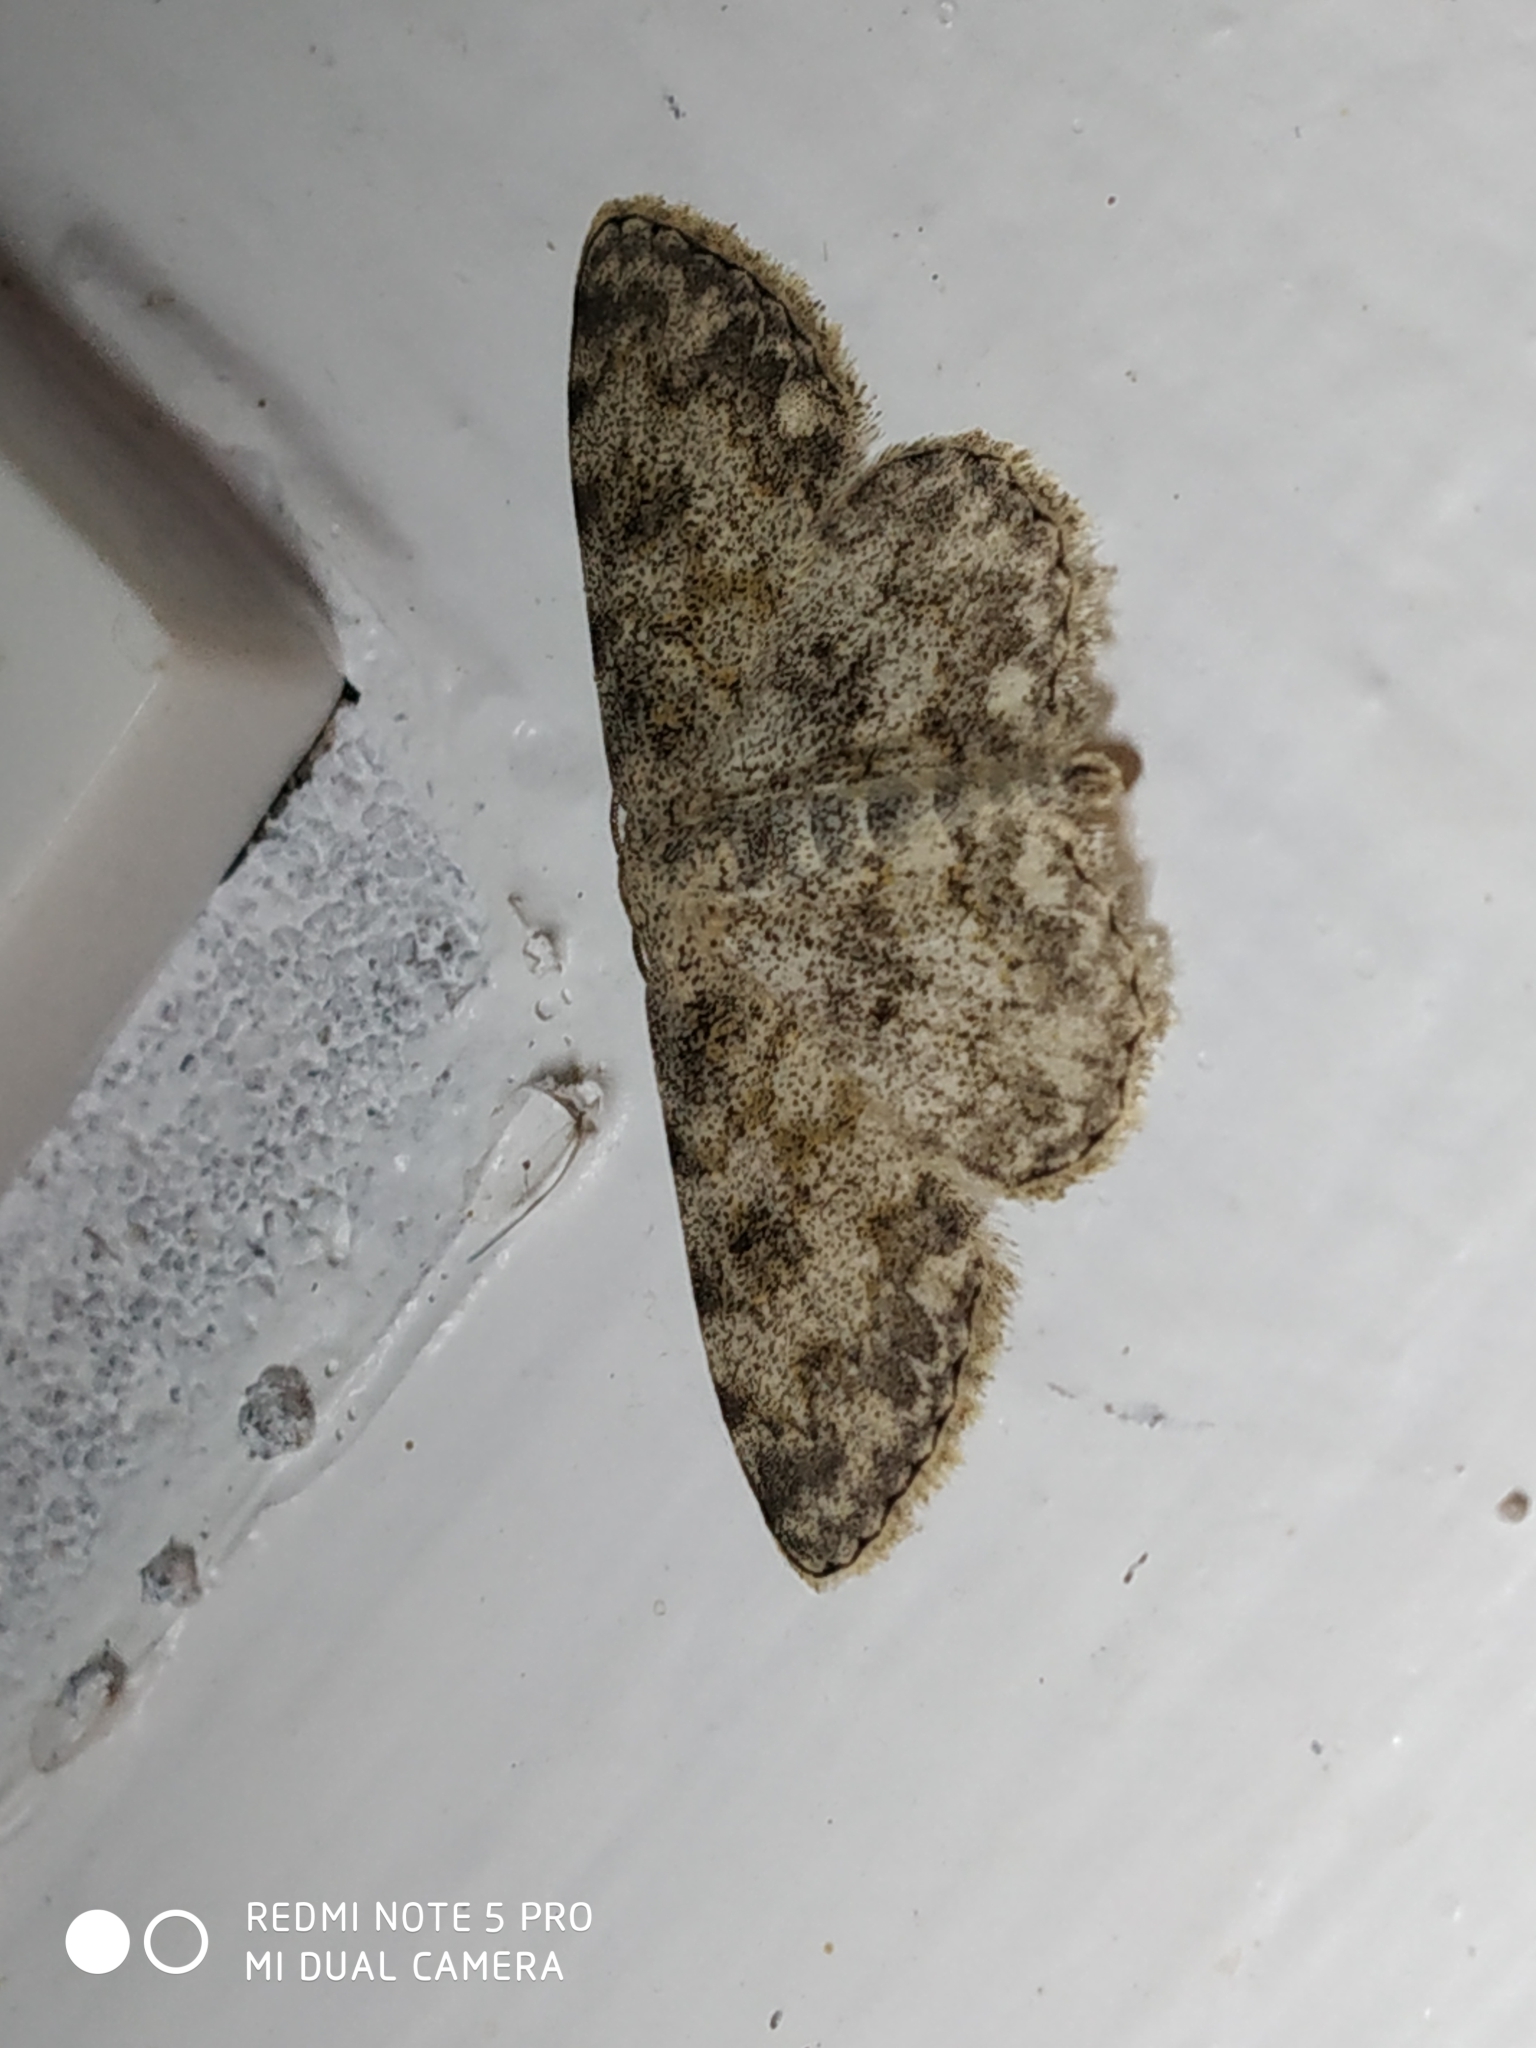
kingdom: Animalia
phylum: Arthropoda
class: Insecta
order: Lepidoptera
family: Geometridae
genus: Scopula
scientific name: Scopula fibulata
